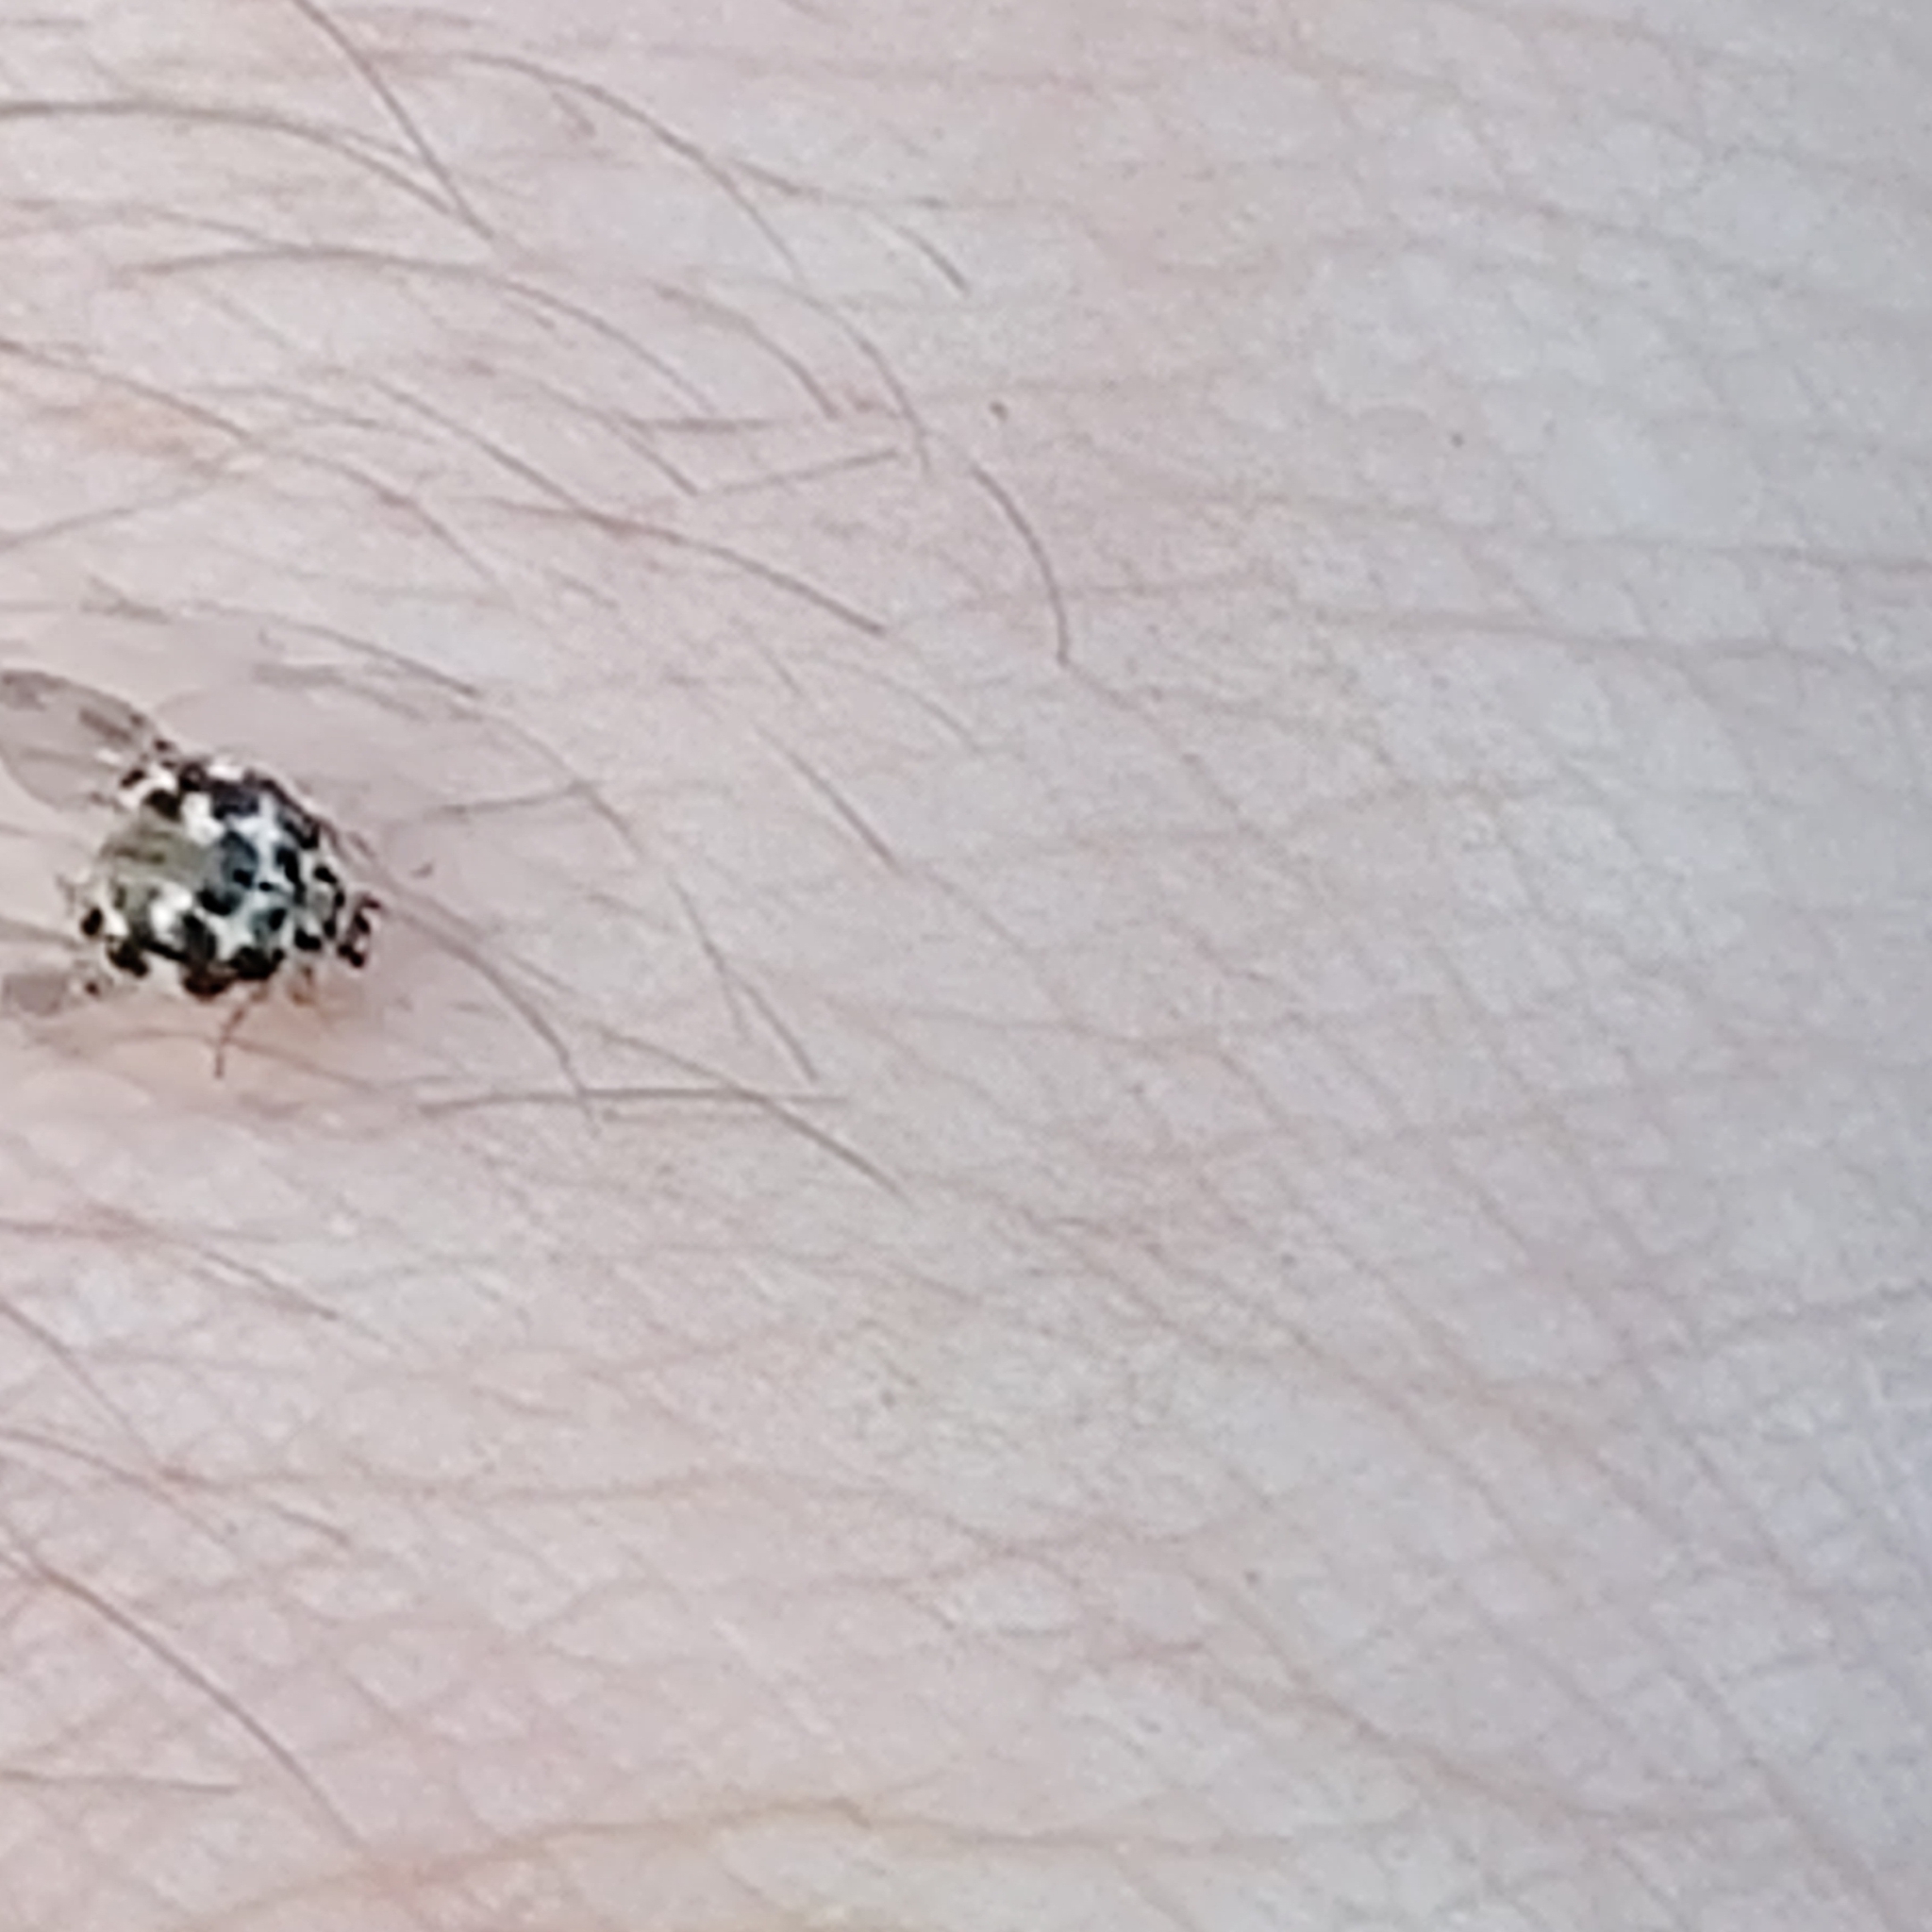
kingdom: Animalia
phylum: Arthropoda
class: Insecta
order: Coleoptera
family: Coccinellidae
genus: Psyllobora
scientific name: Psyllobora vigintimaculata
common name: Ladybird beetle
